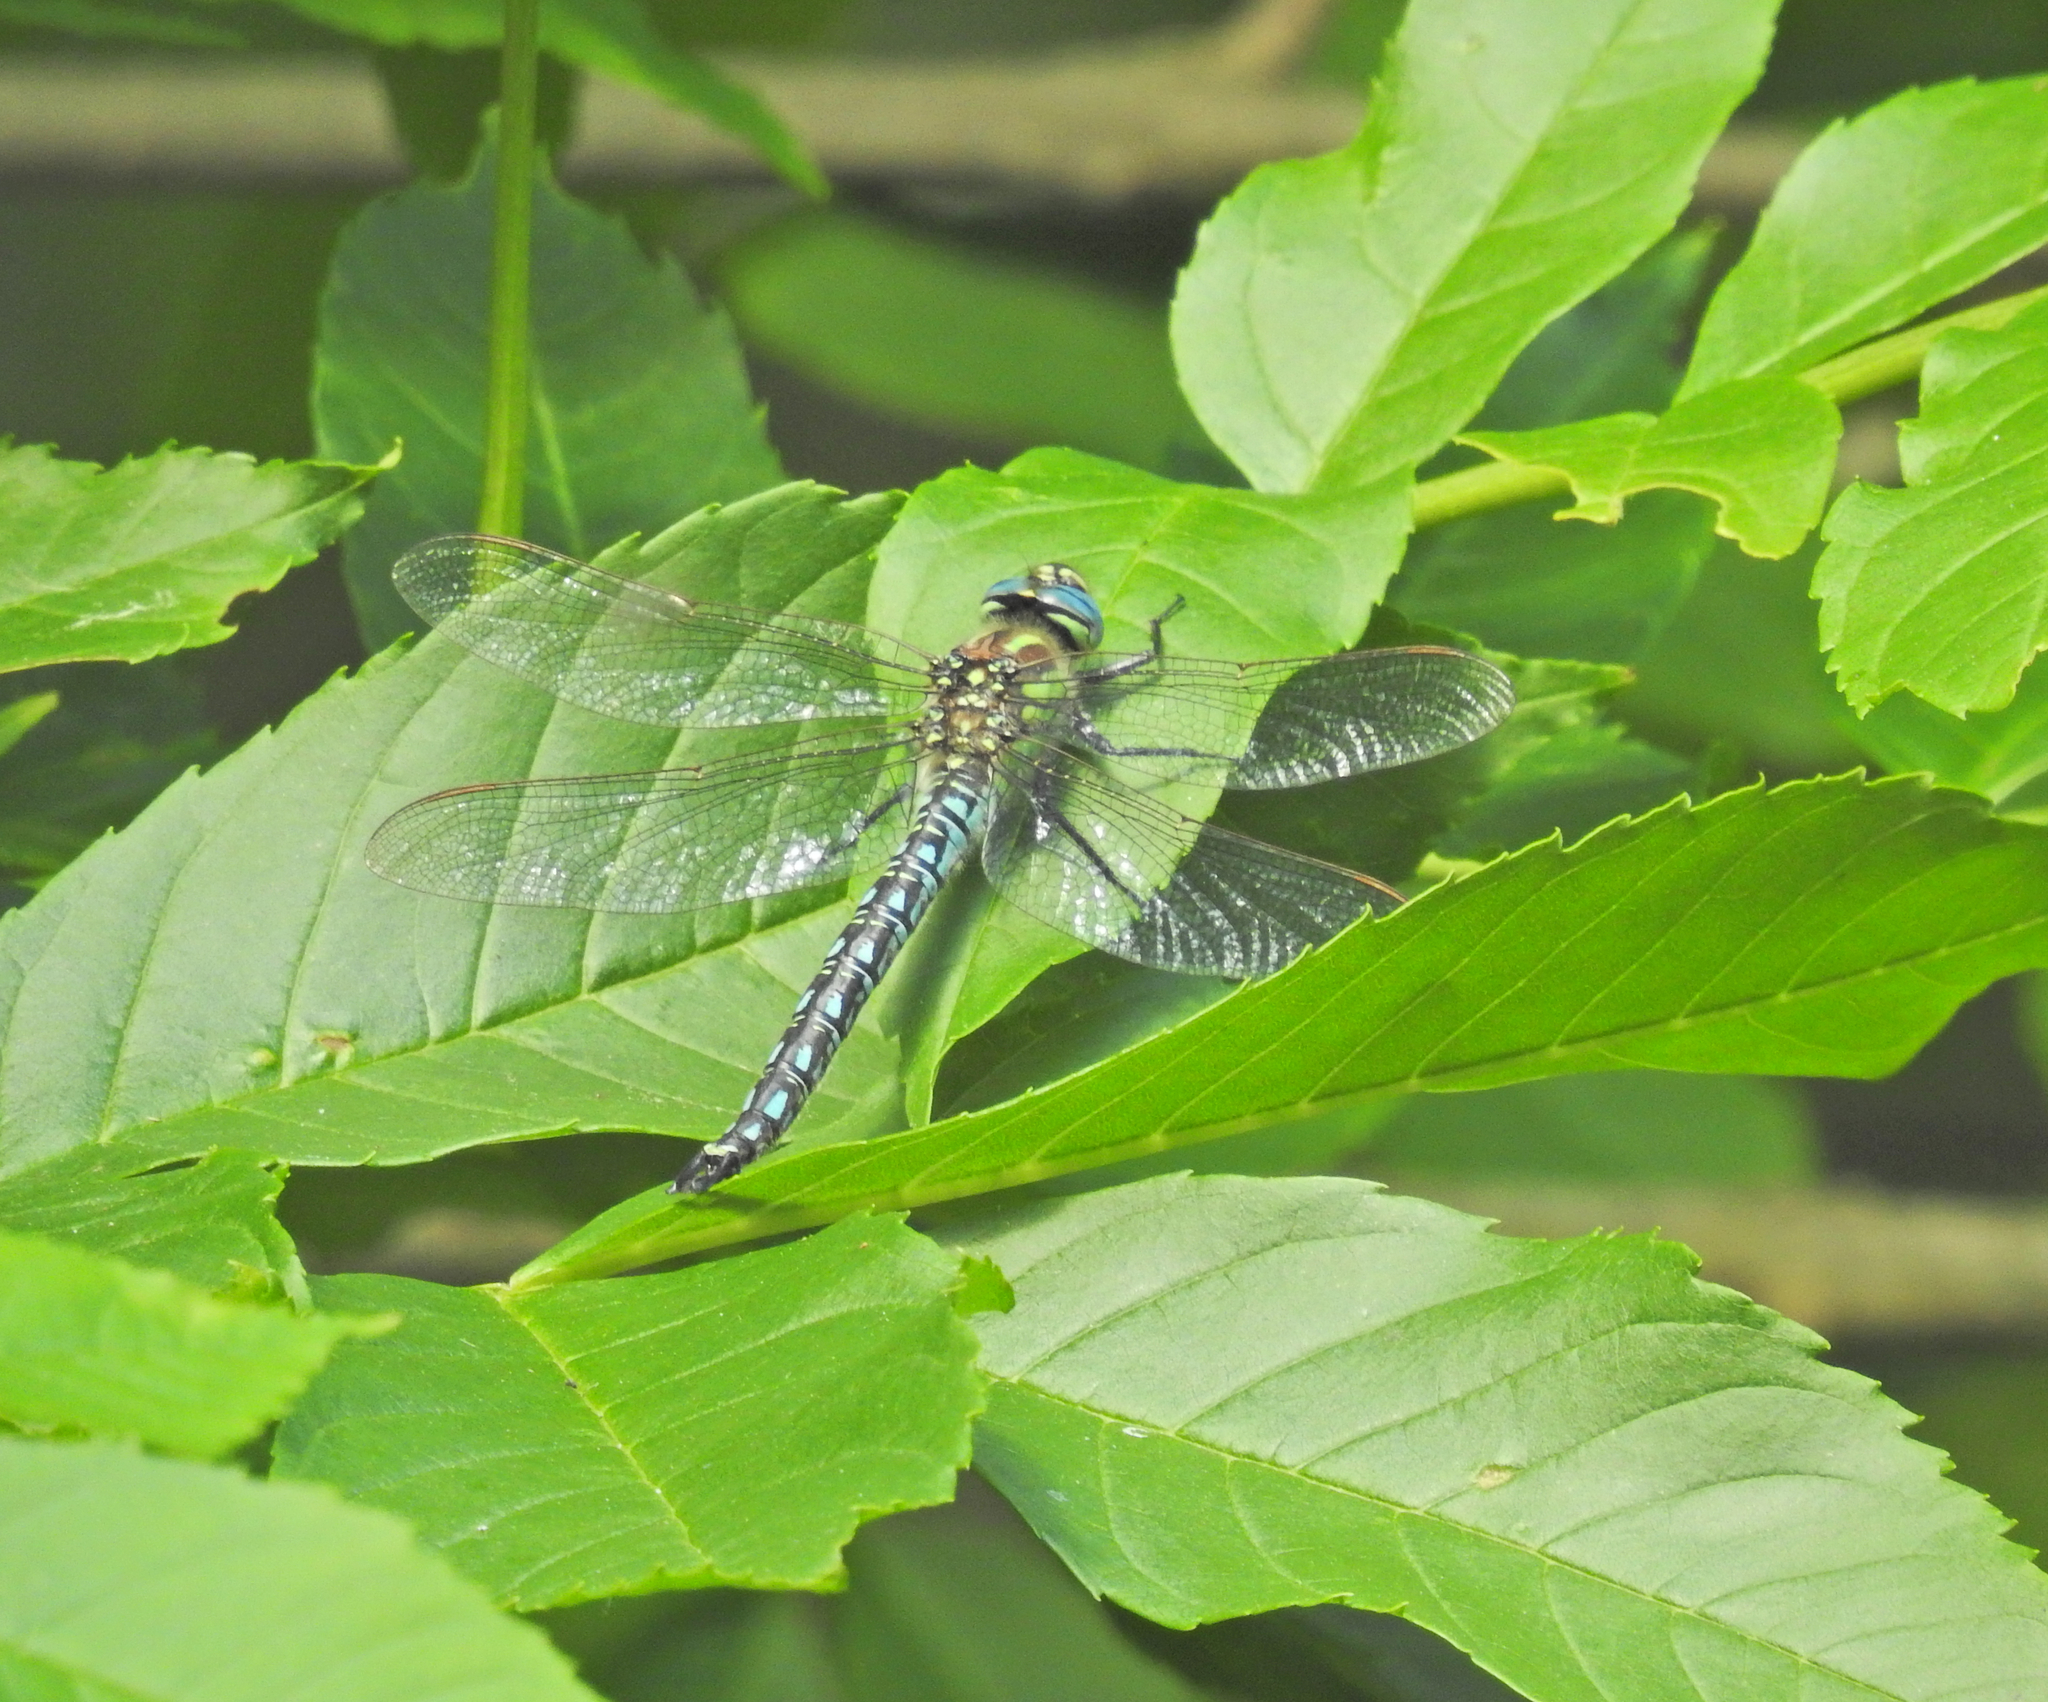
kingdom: Animalia
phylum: Arthropoda
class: Insecta
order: Odonata
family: Aeshnidae
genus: Brachytron
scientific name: Brachytron pratense
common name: Hairy hawker
